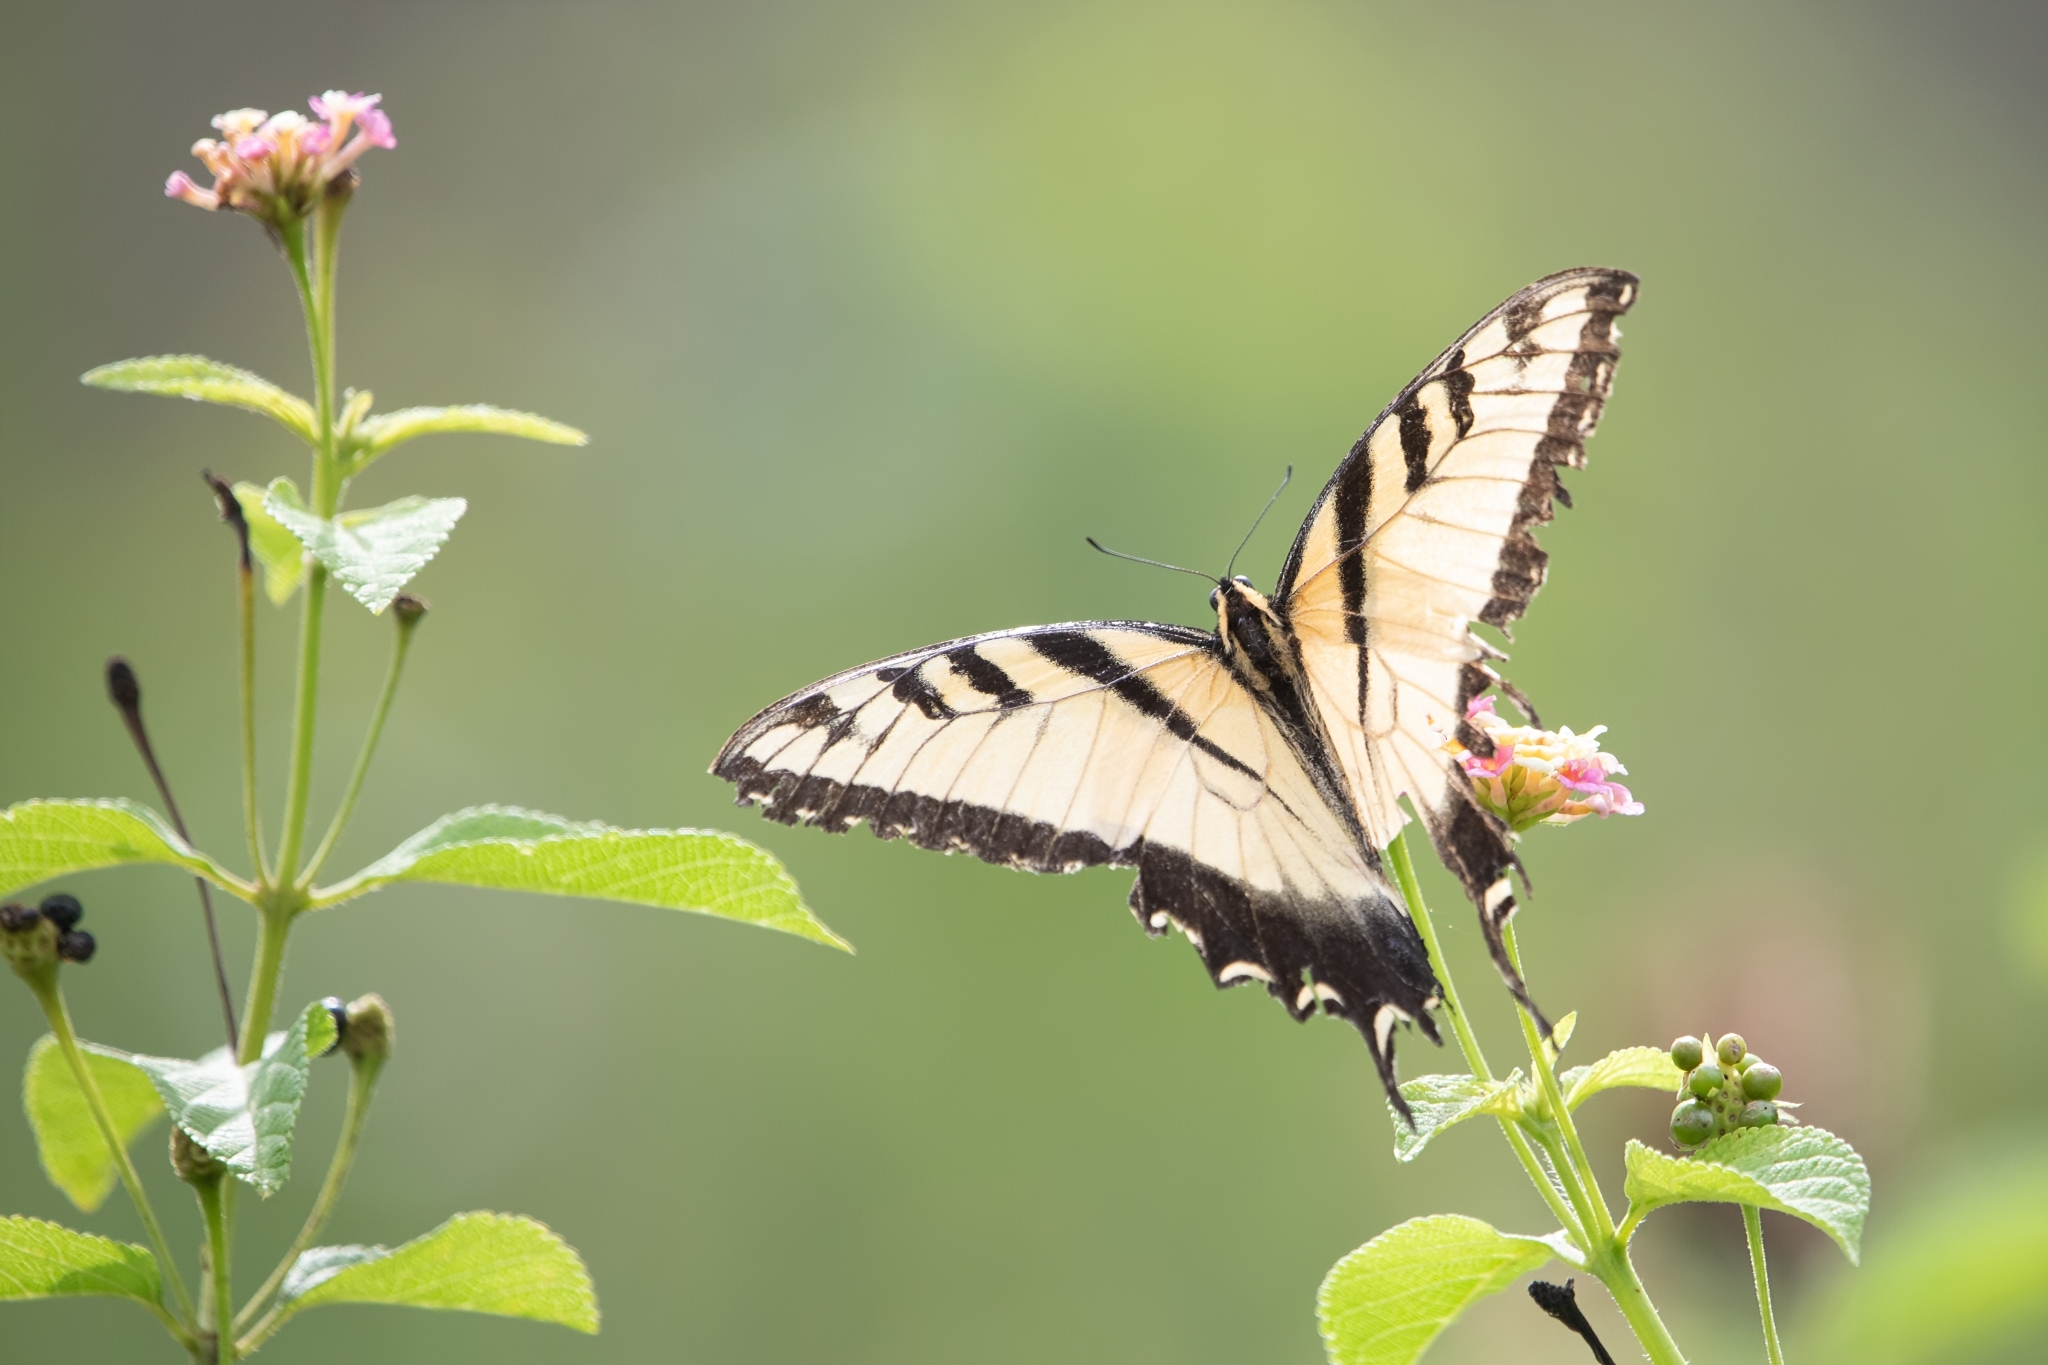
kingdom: Animalia
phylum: Arthropoda
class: Insecta
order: Lepidoptera
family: Papilionidae
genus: Papilio
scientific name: Papilio glaucus
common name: Tiger swallowtail
